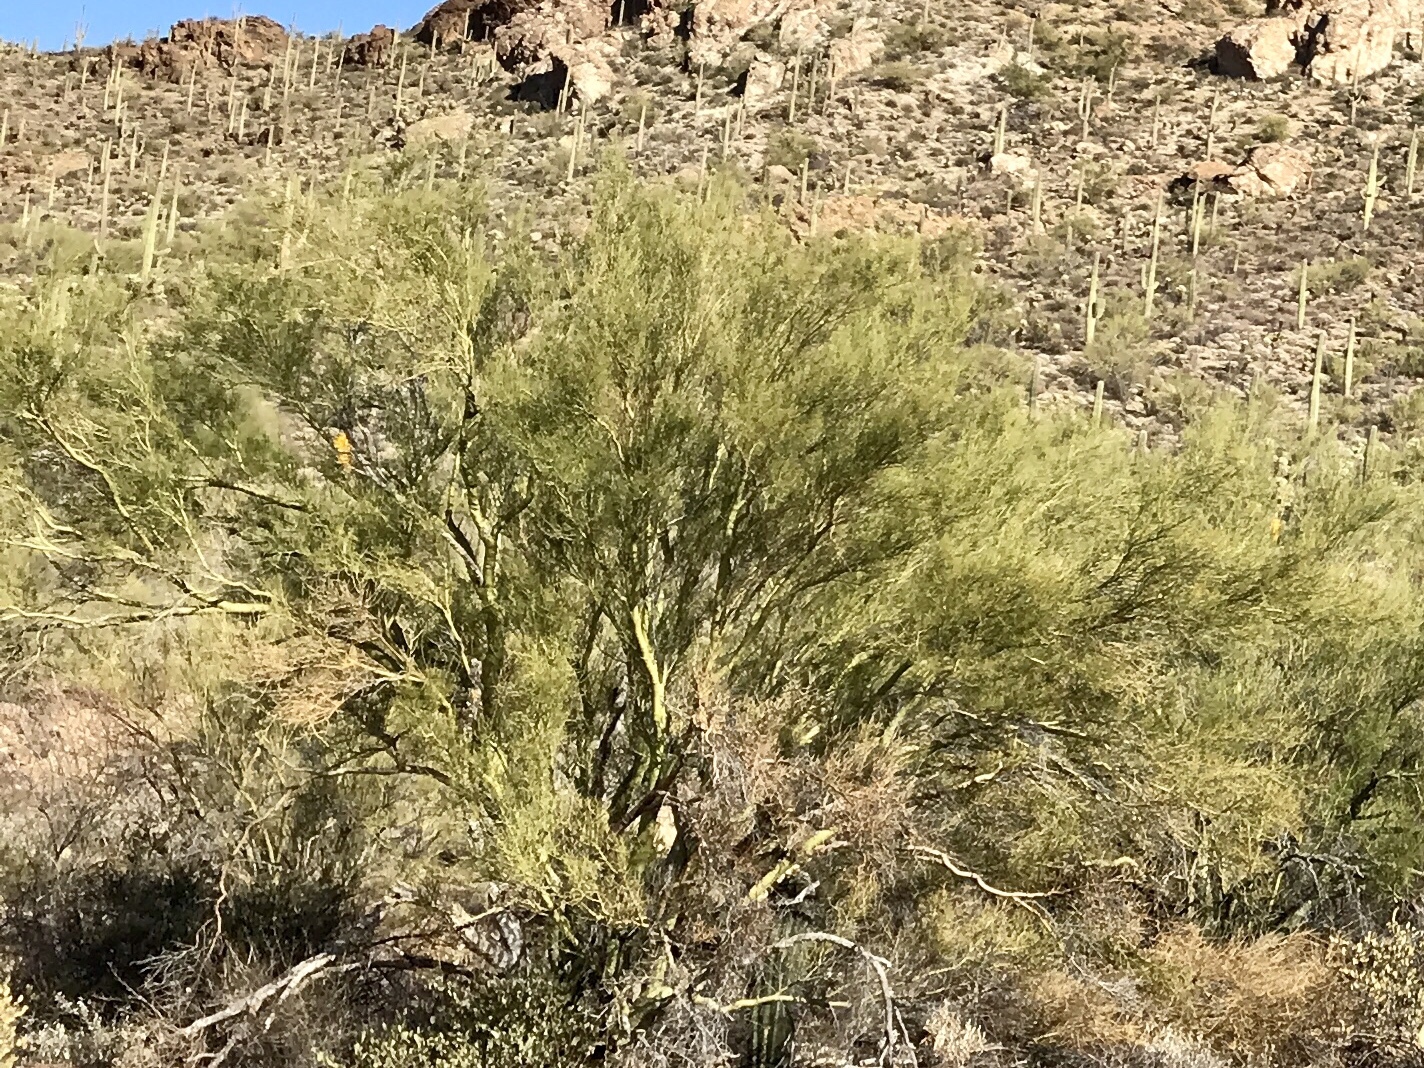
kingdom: Plantae
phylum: Tracheophyta
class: Magnoliopsida
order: Fabales
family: Fabaceae
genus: Parkinsonia
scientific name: Parkinsonia microphylla
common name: Yellow paloverde
